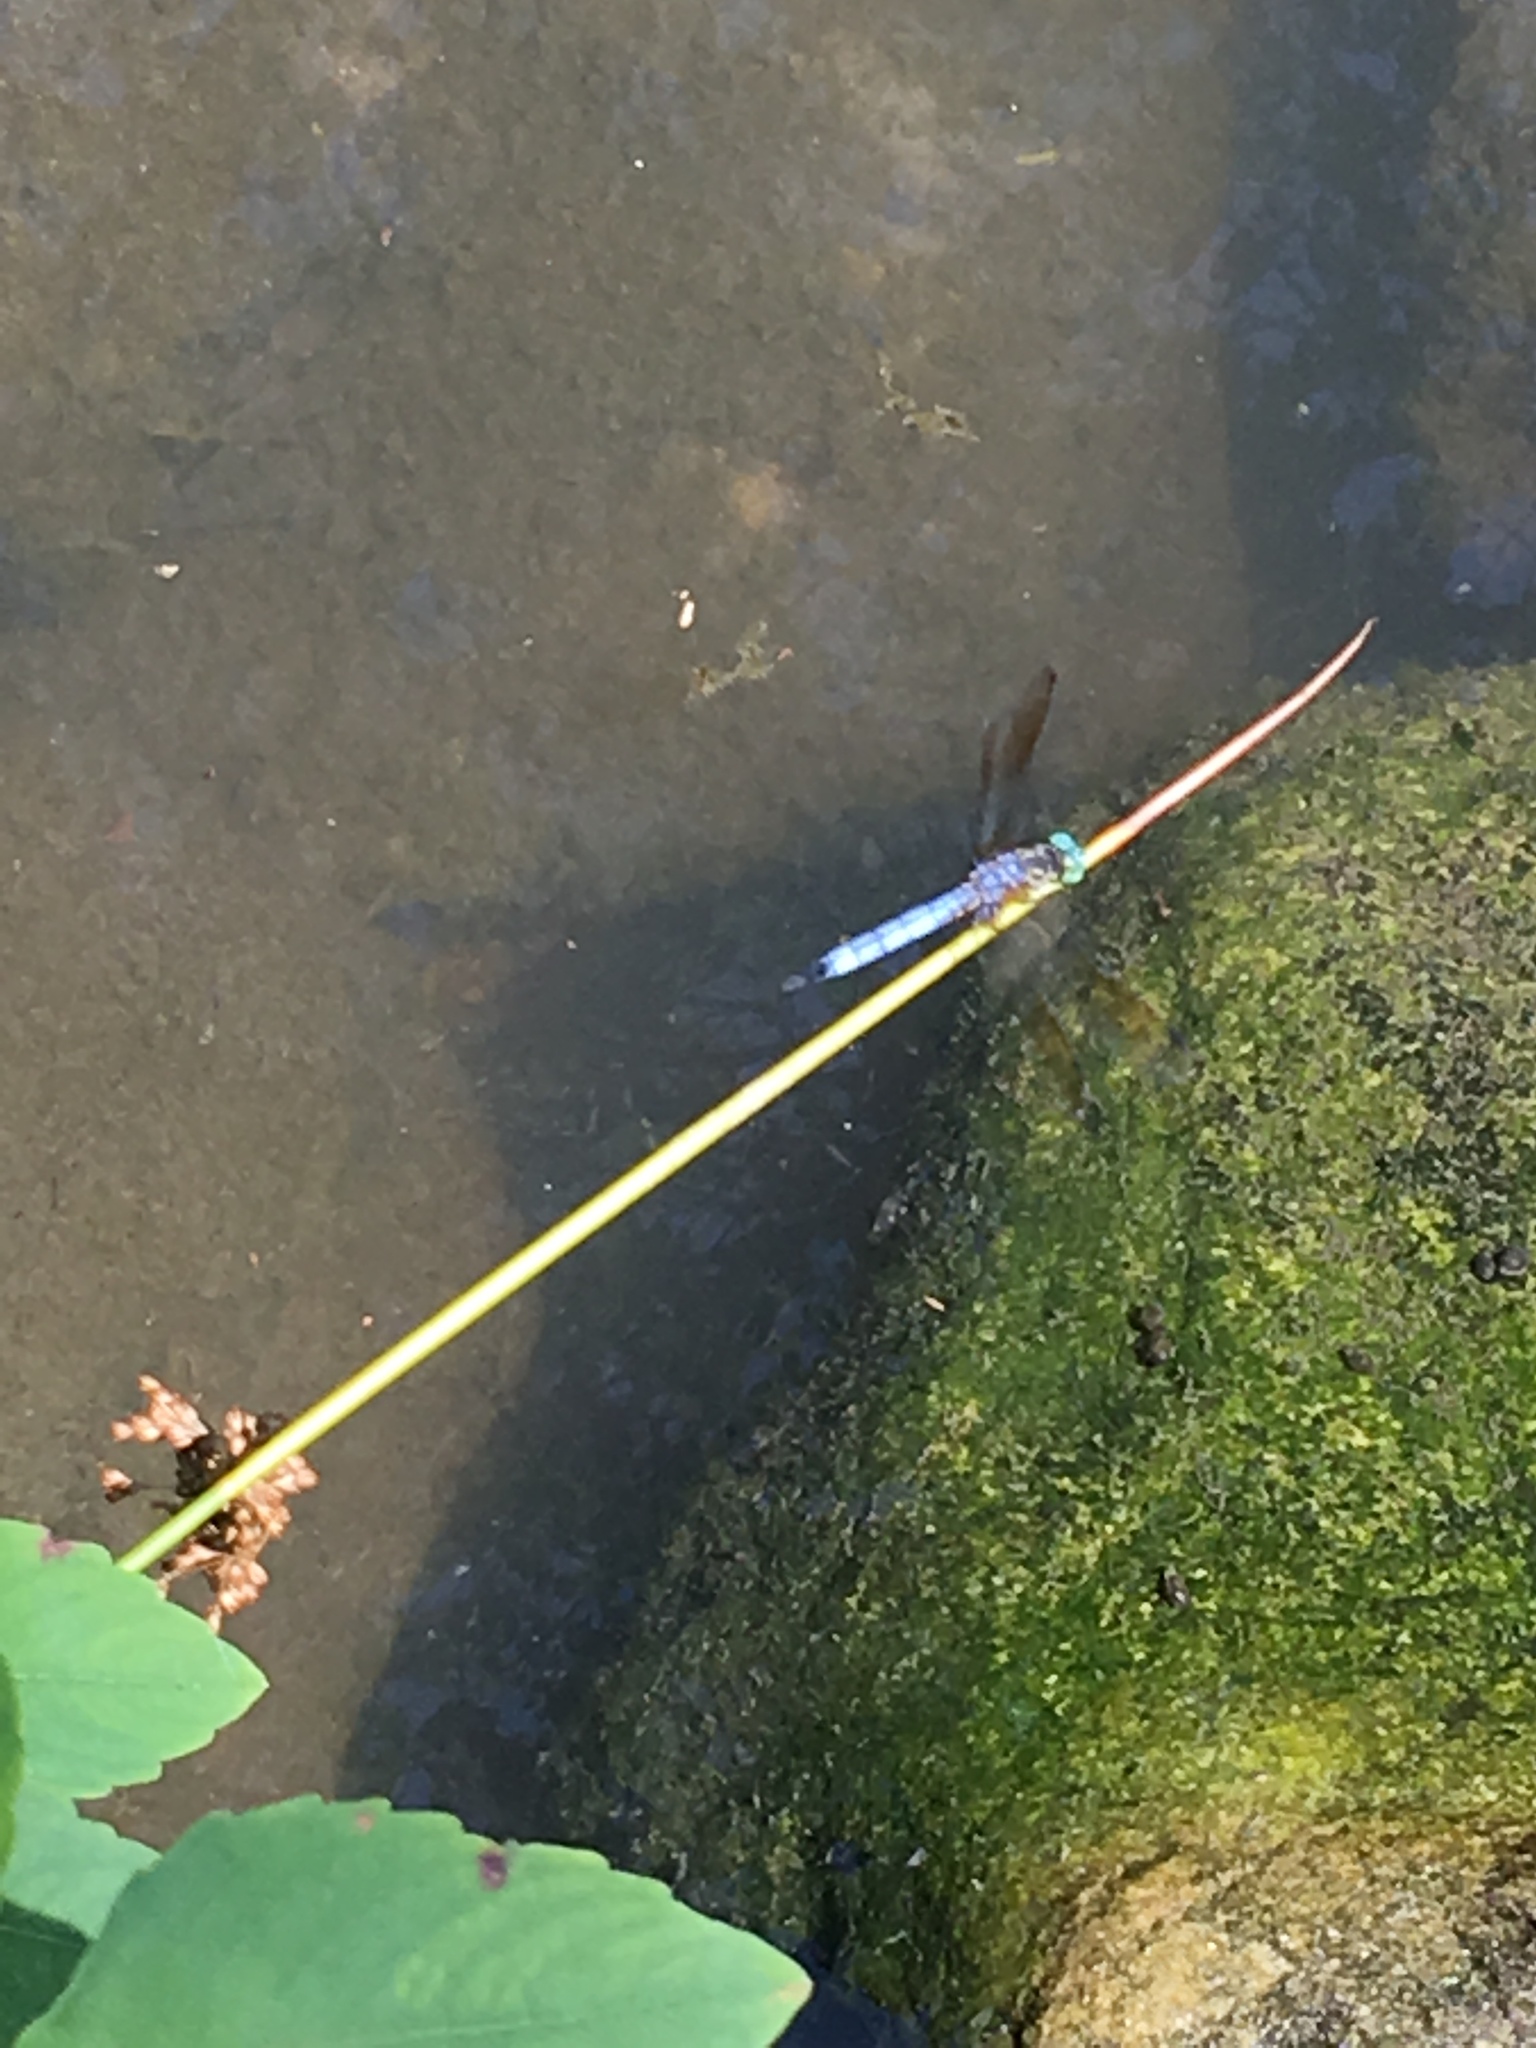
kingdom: Animalia
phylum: Arthropoda
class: Insecta
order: Odonata
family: Libellulidae
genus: Pachydiplax
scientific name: Pachydiplax longipennis
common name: Blue dasher
